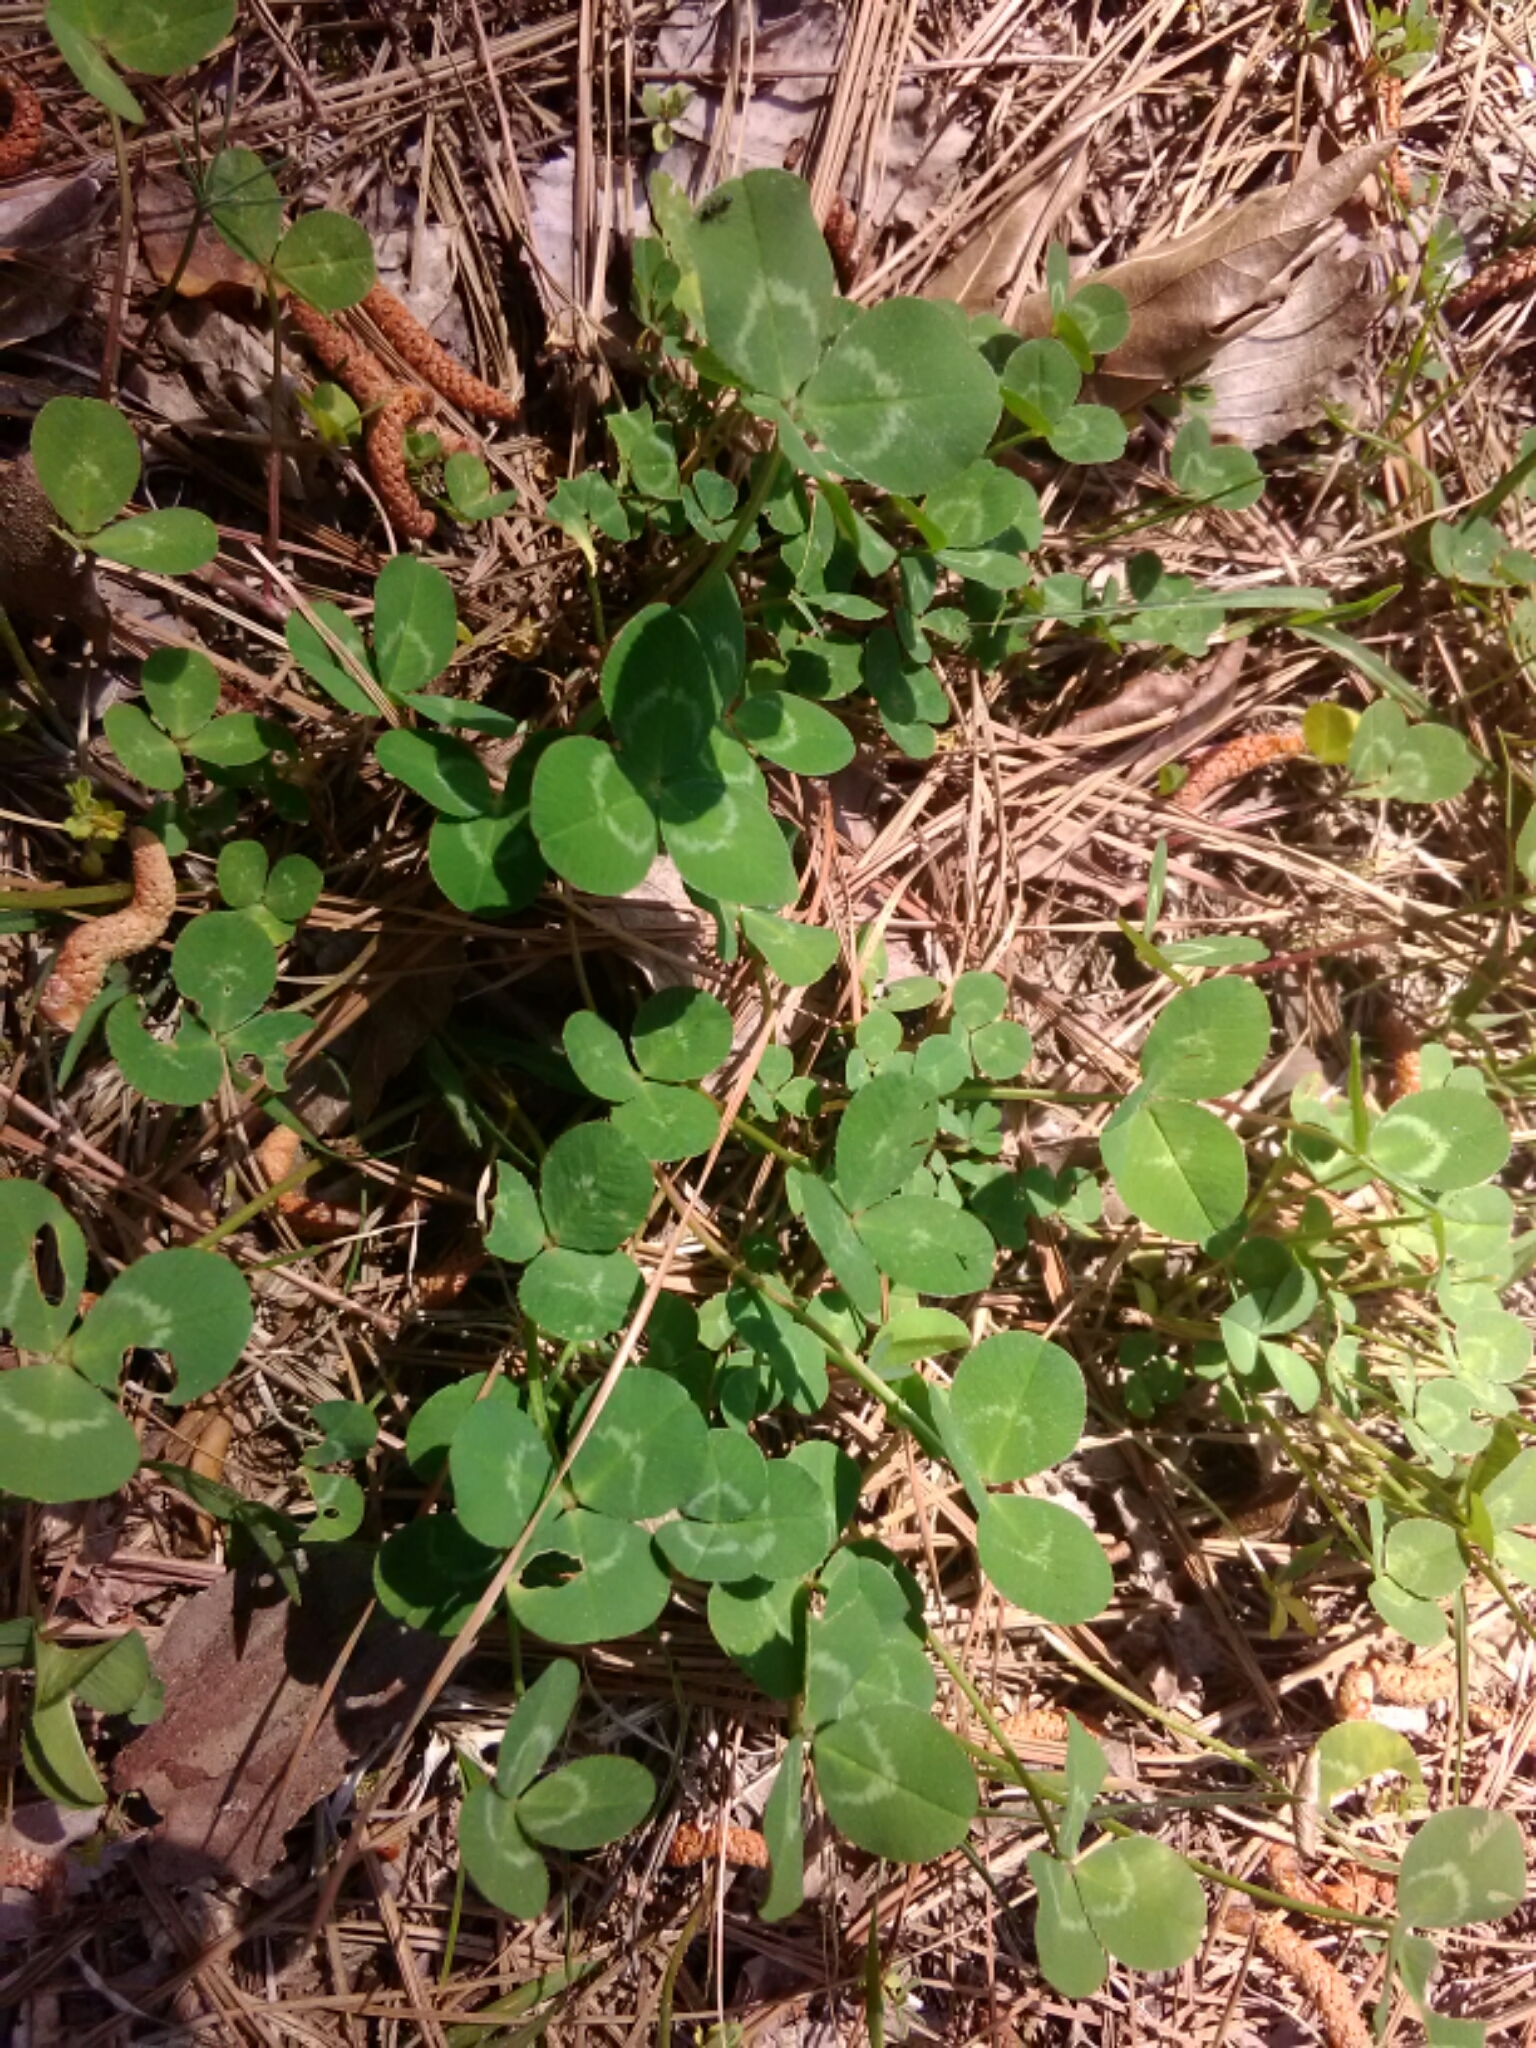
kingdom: Plantae
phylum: Tracheophyta
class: Magnoliopsida
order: Fabales
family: Fabaceae
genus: Trifolium
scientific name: Trifolium repens
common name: White clover
